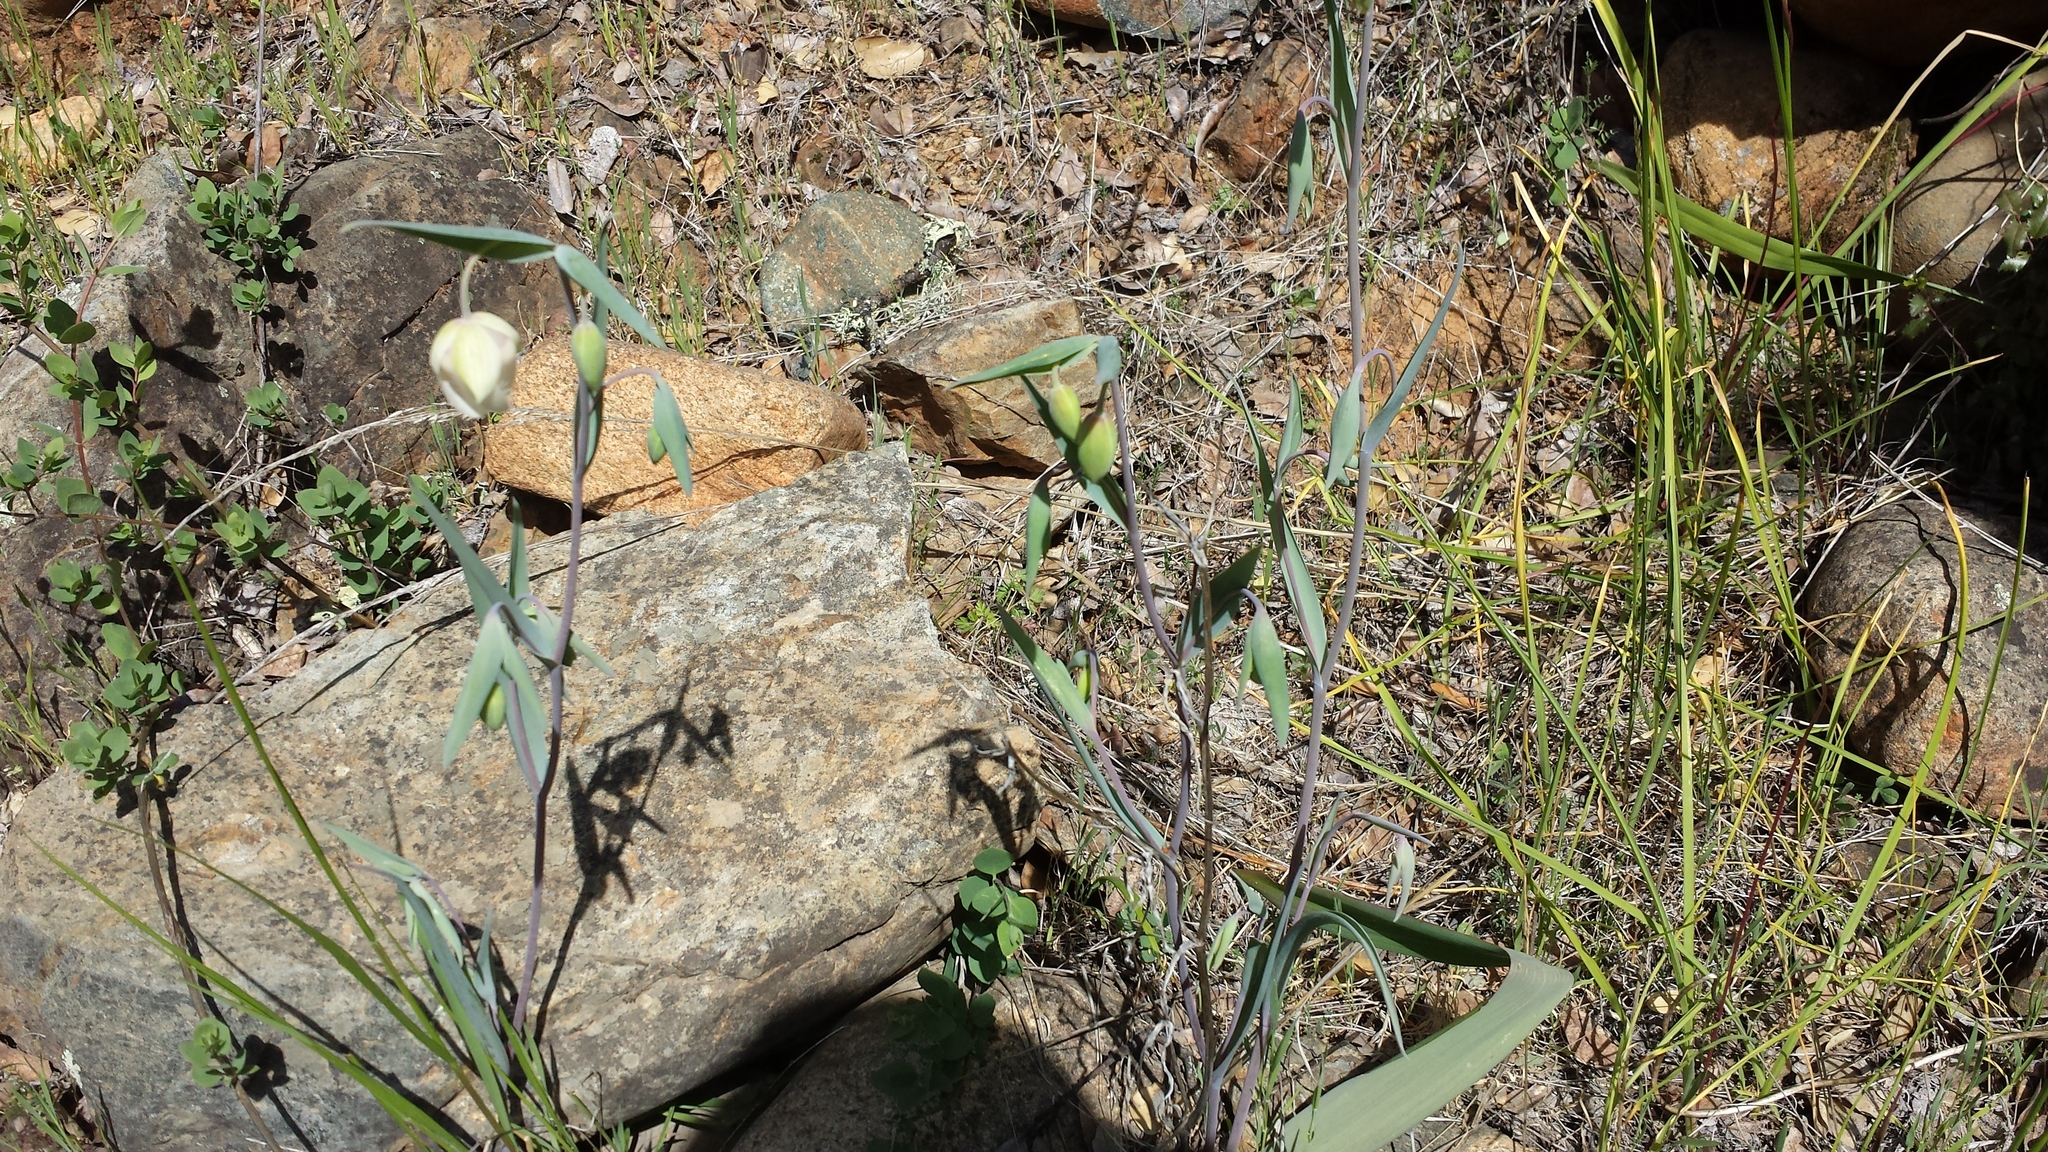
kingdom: Plantae
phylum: Tracheophyta
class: Liliopsida
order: Liliales
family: Liliaceae
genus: Calochortus
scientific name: Calochortus albus
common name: Fairy-lantern
